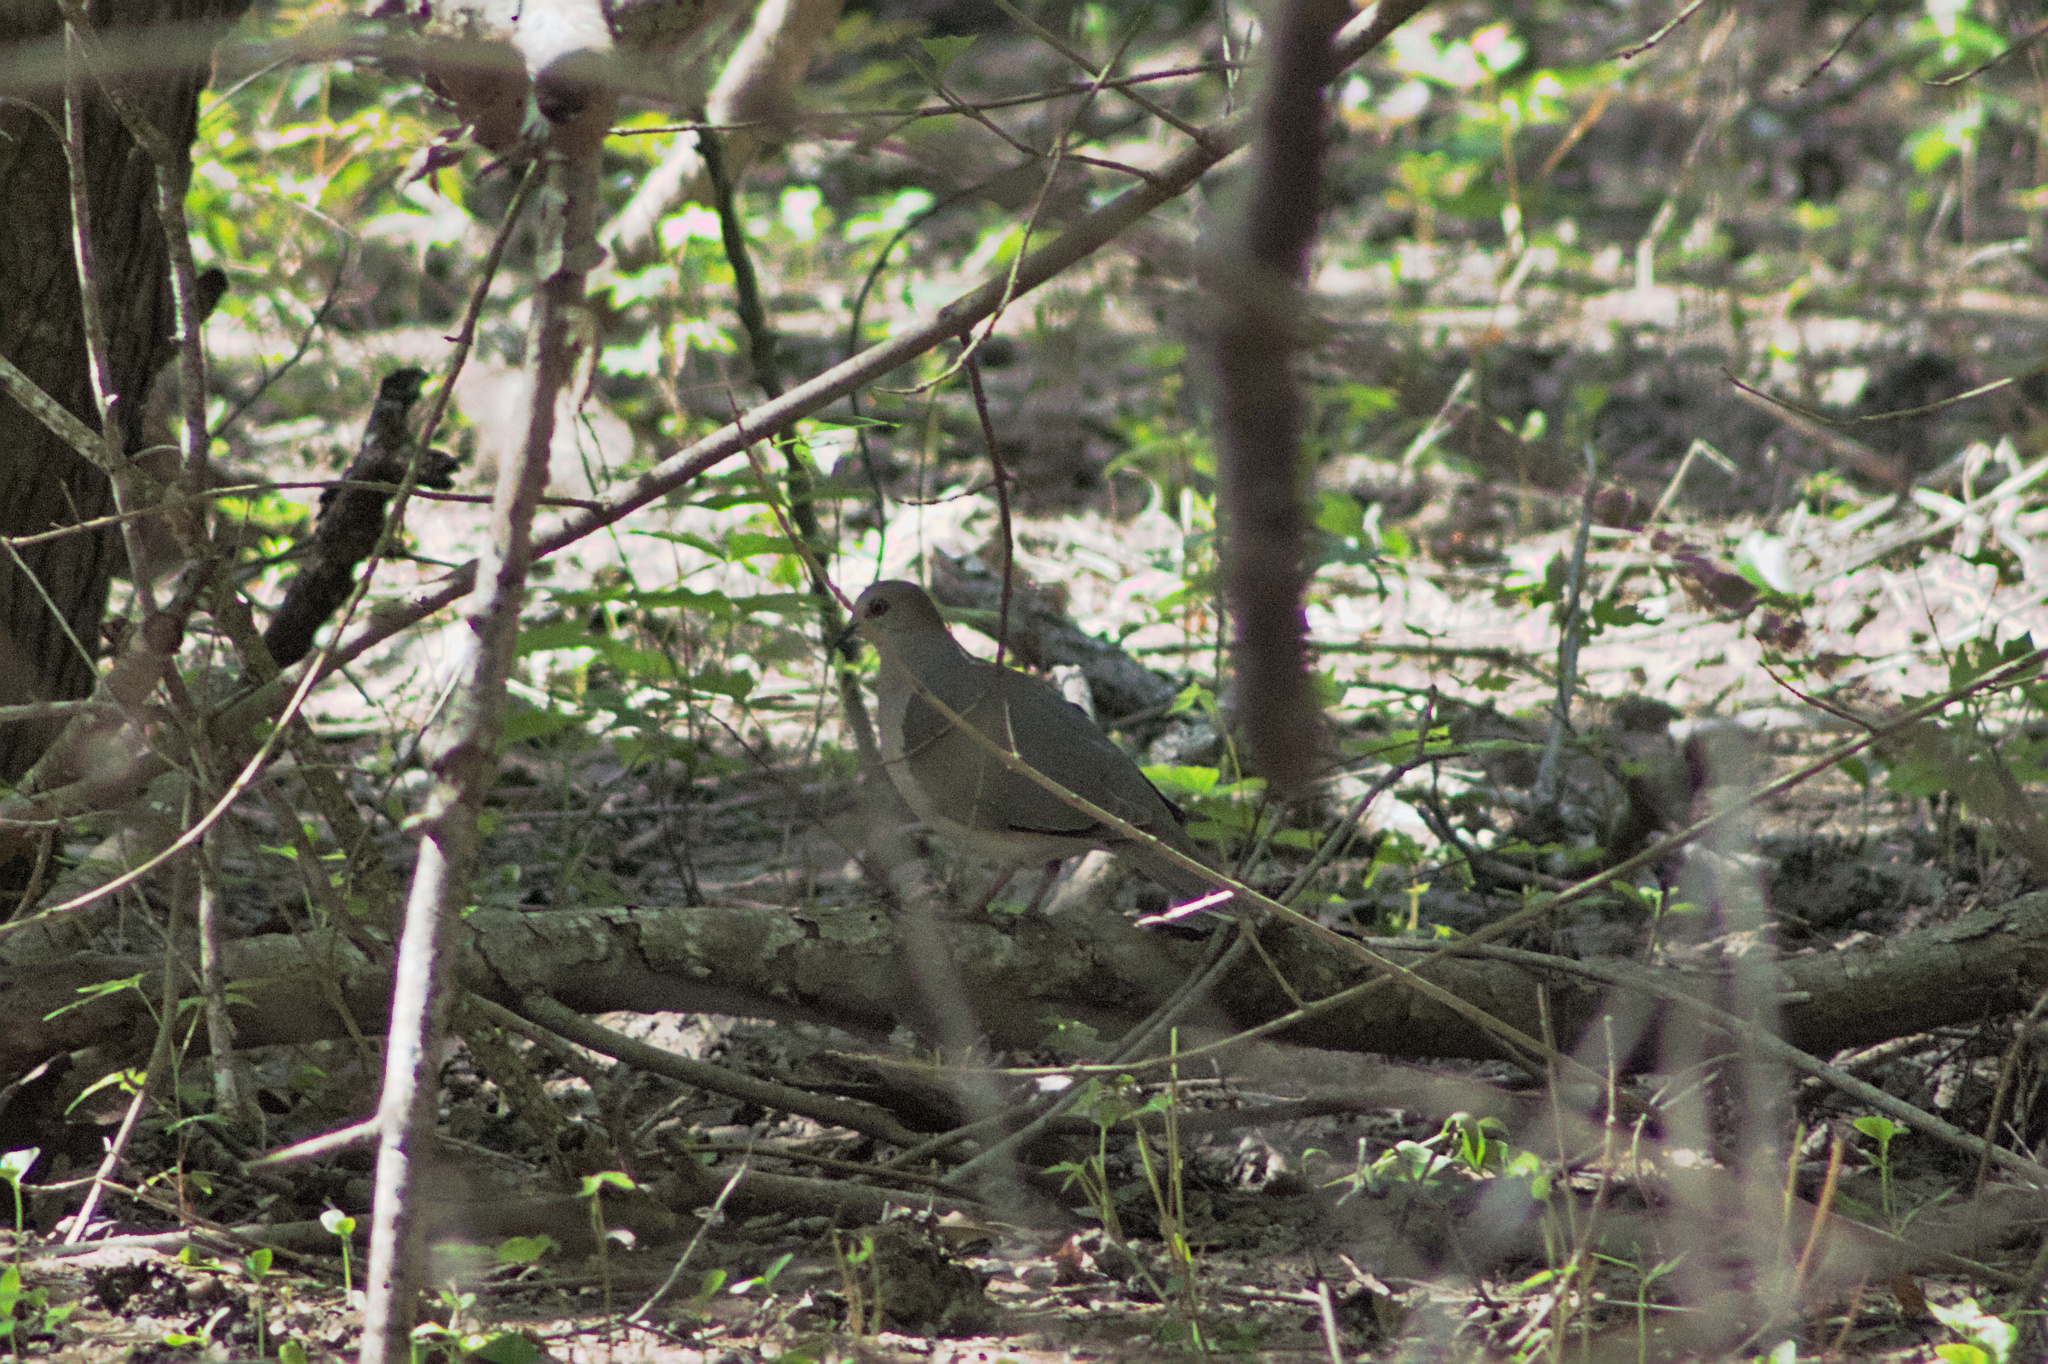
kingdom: Animalia
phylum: Chordata
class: Aves
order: Columbiformes
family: Columbidae
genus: Leptotila
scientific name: Leptotila verreauxi
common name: White-tipped dove
